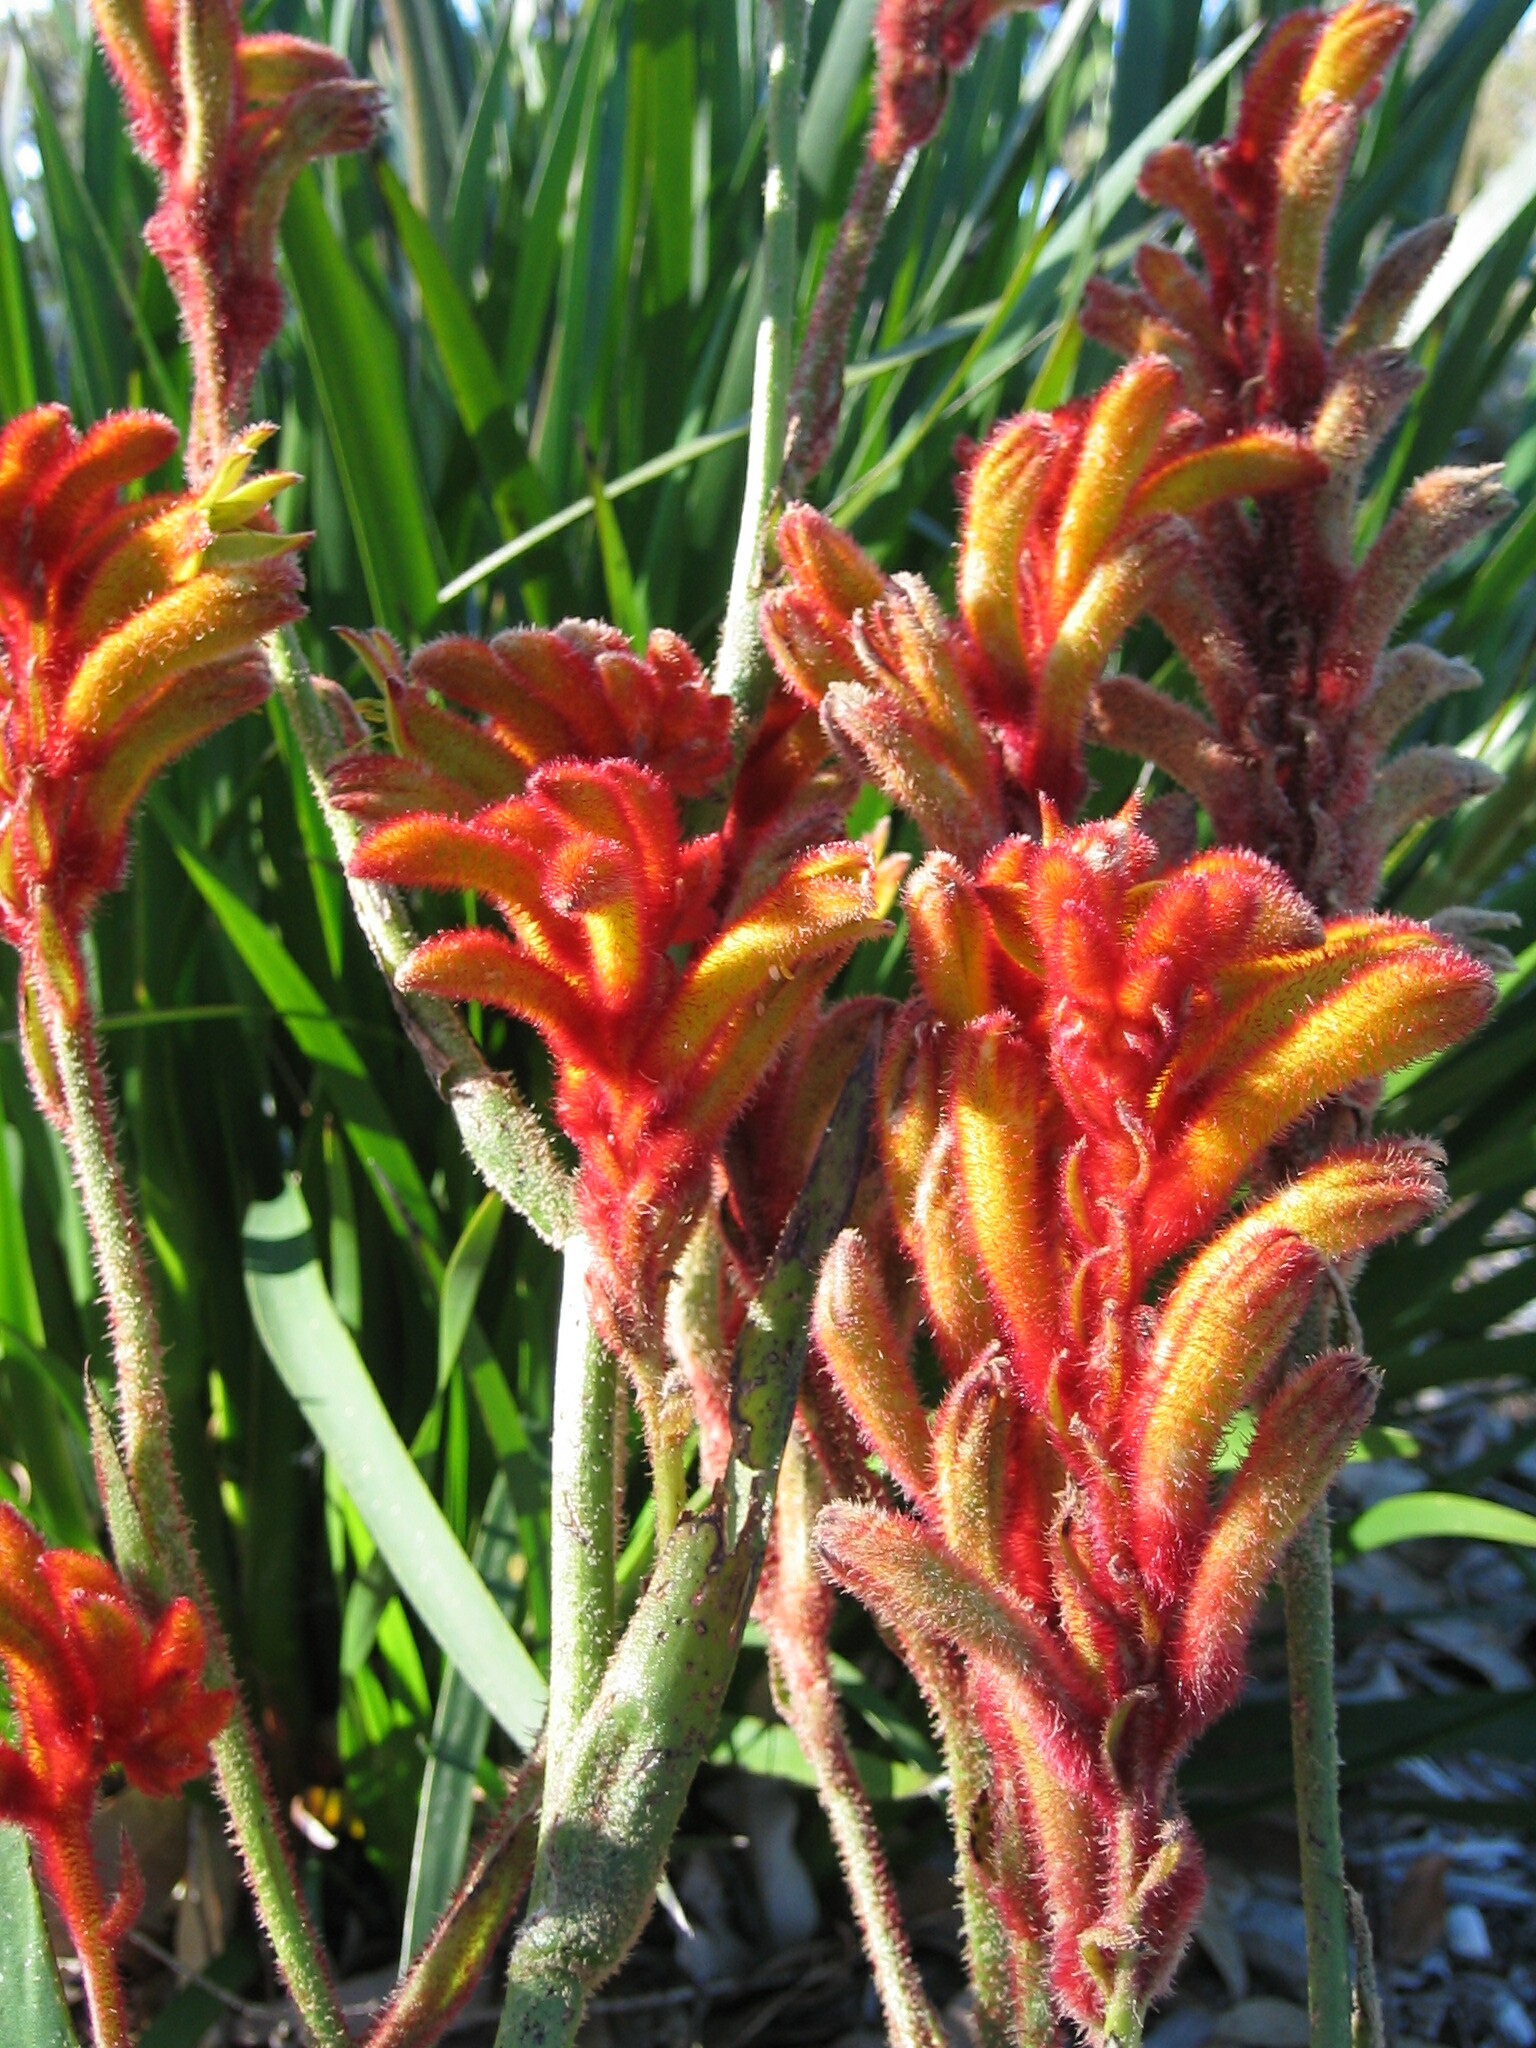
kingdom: Plantae
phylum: Tracheophyta
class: Liliopsida
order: Commelinales
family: Haemodoraceae
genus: Anigozanthos
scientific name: Anigozanthos humilis
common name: Cat's-paw
